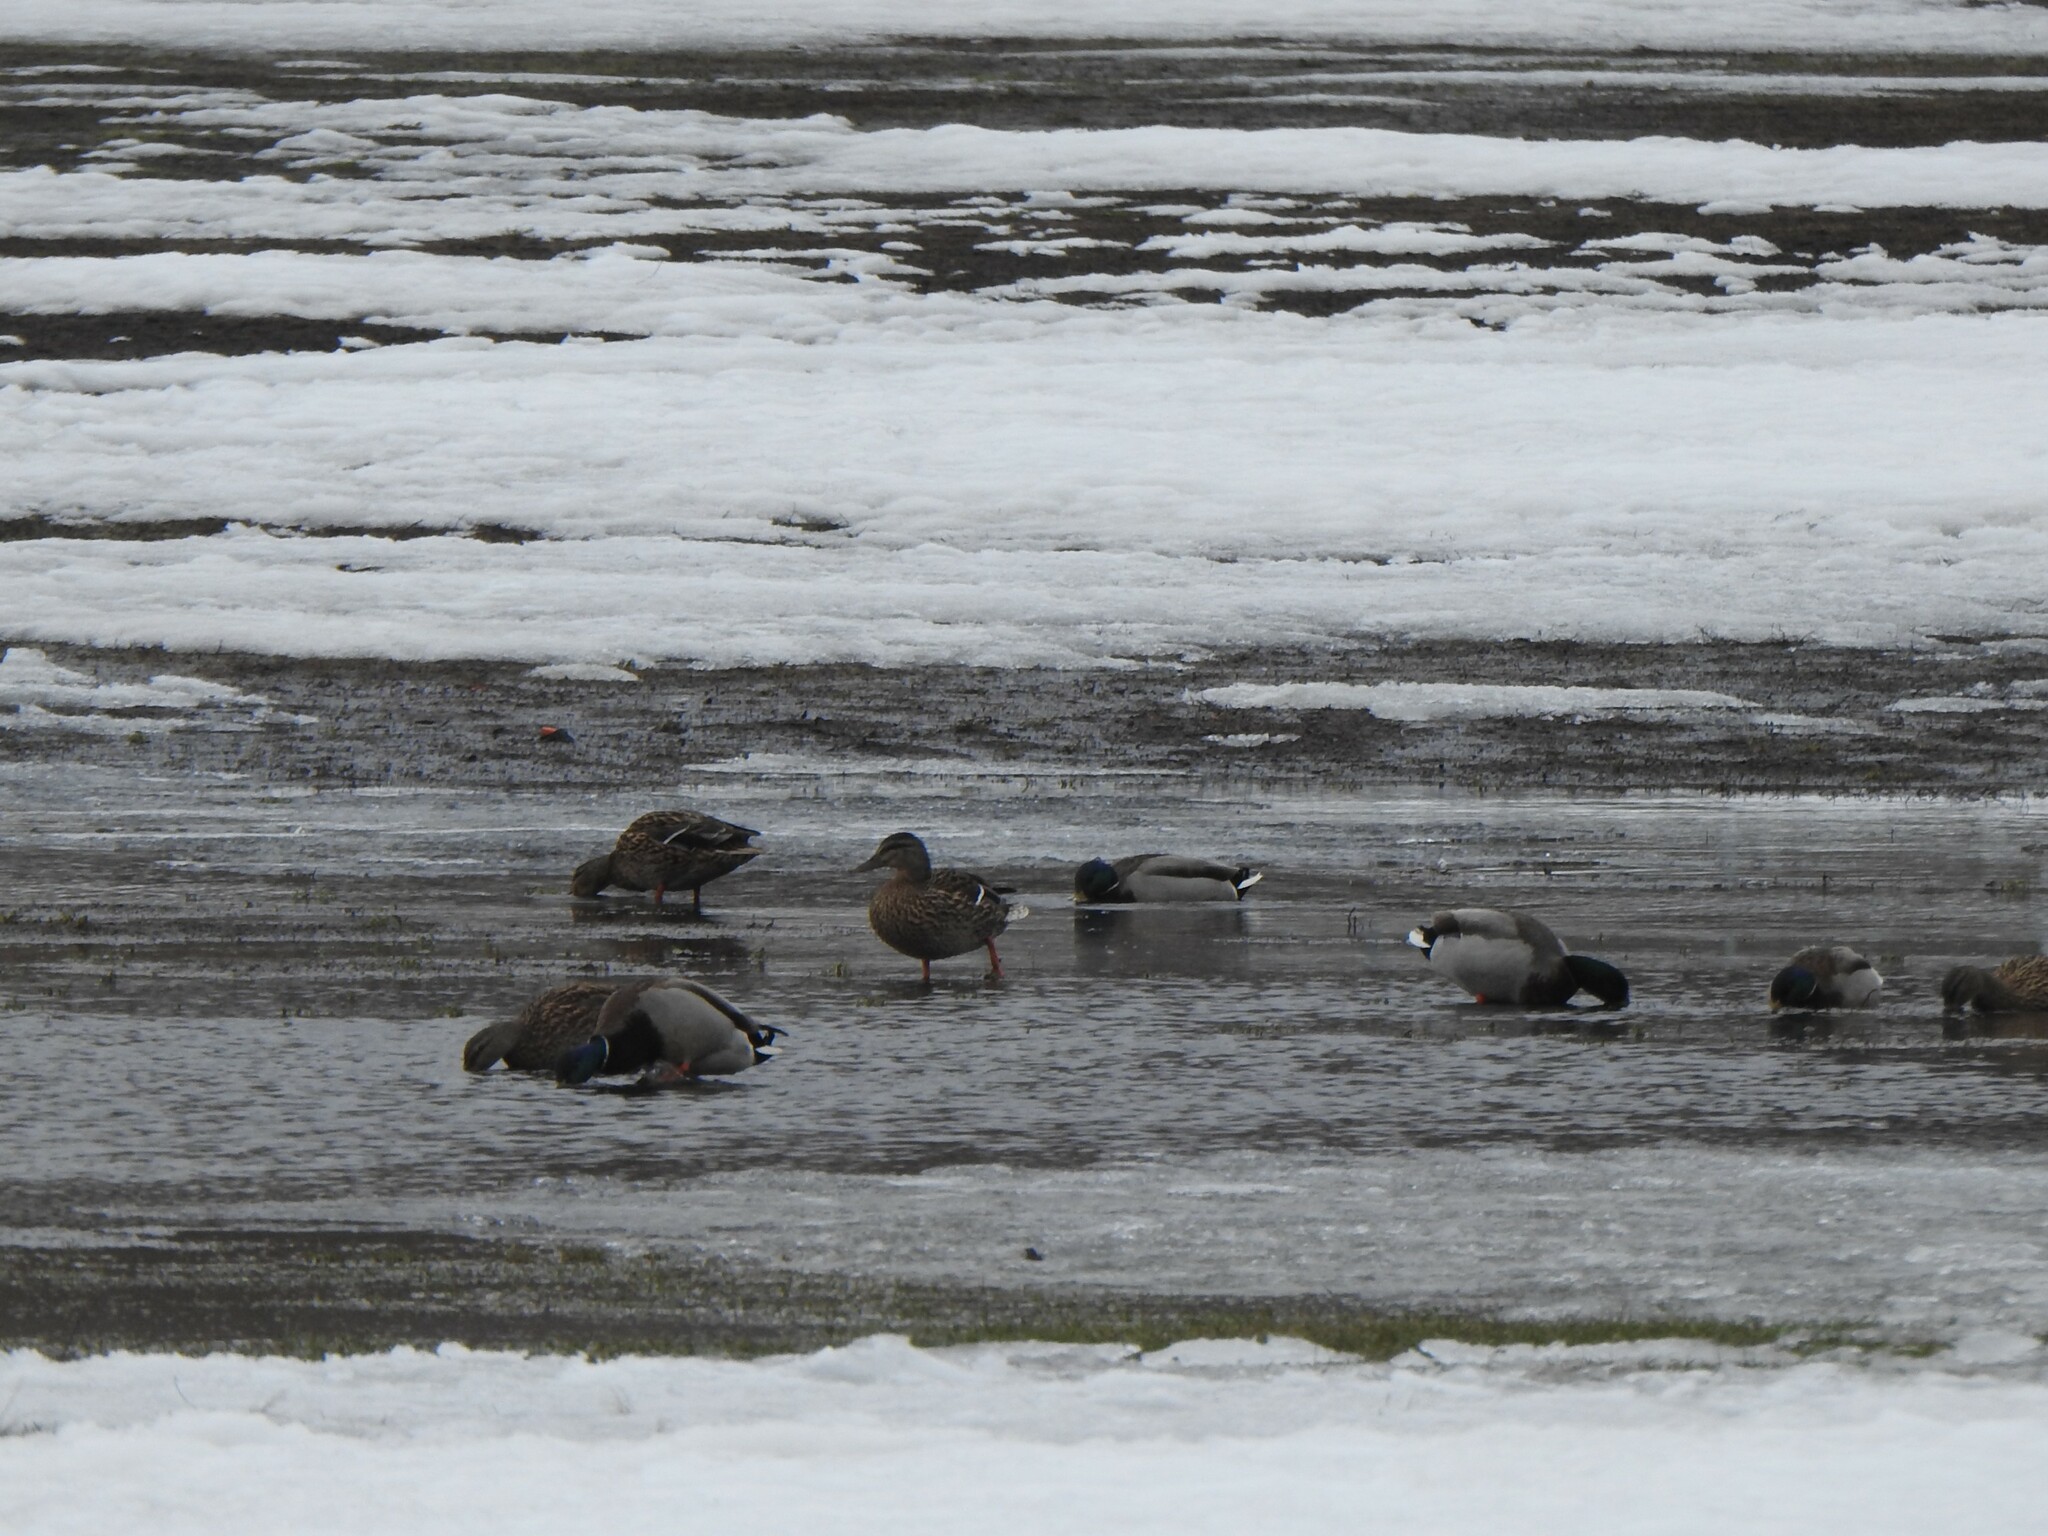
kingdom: Animalia
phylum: Chordata
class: Aves
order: Anseriformes
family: Anatidae
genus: Anas
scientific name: Anas platyrhynchos
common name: Mallard
